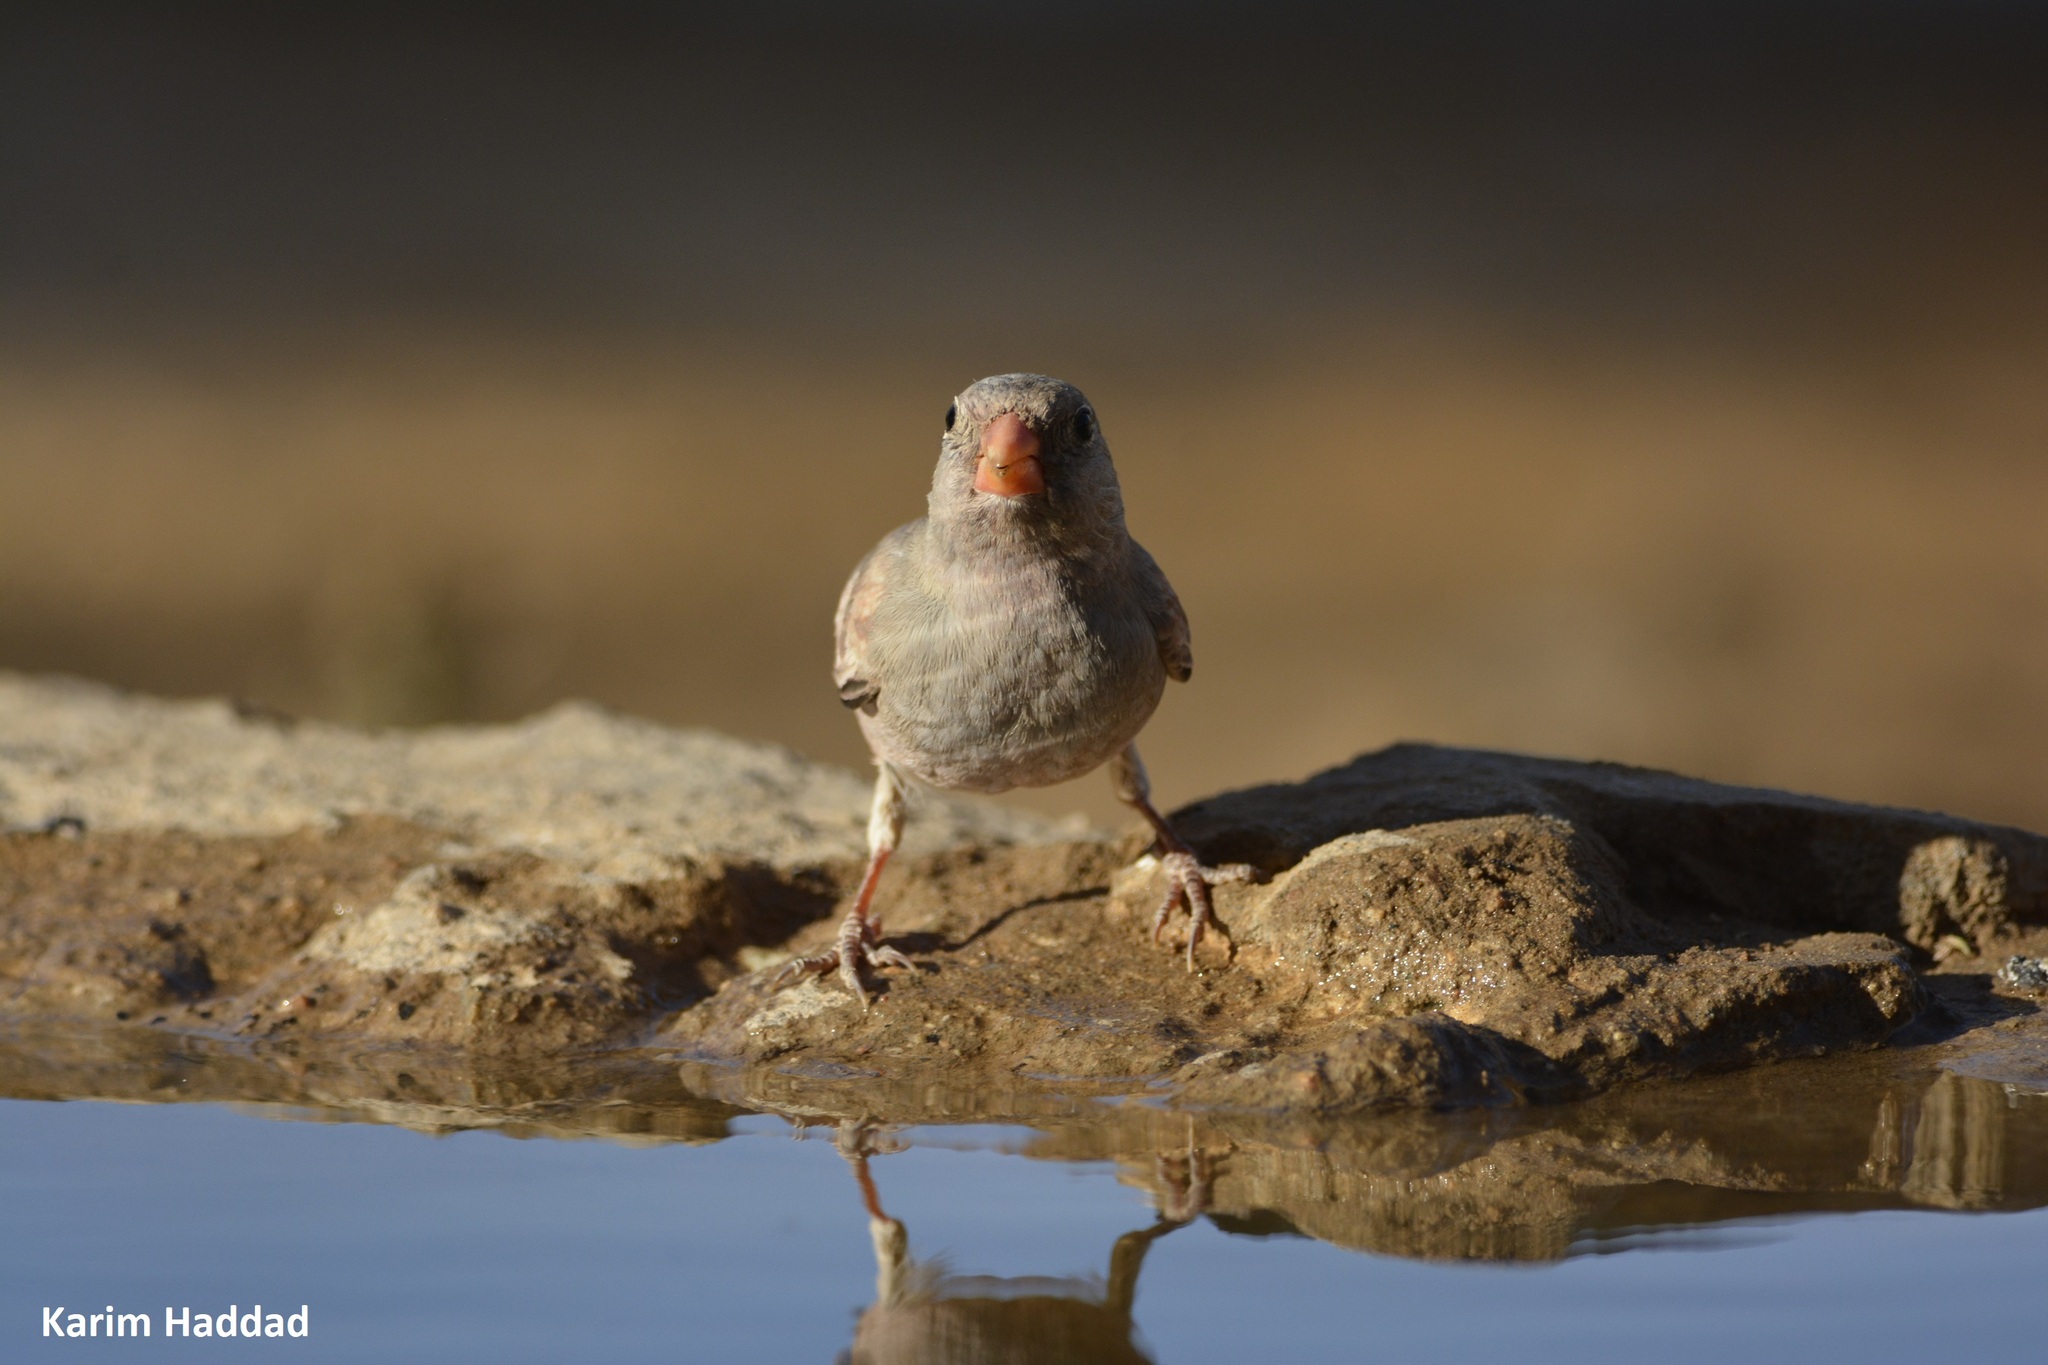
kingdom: Animalia
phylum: Chordata
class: Aves
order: Passeriformes
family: Fringillidae
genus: Bucanetes
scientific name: Bucanetes githagineus
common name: Trumpeter finch
